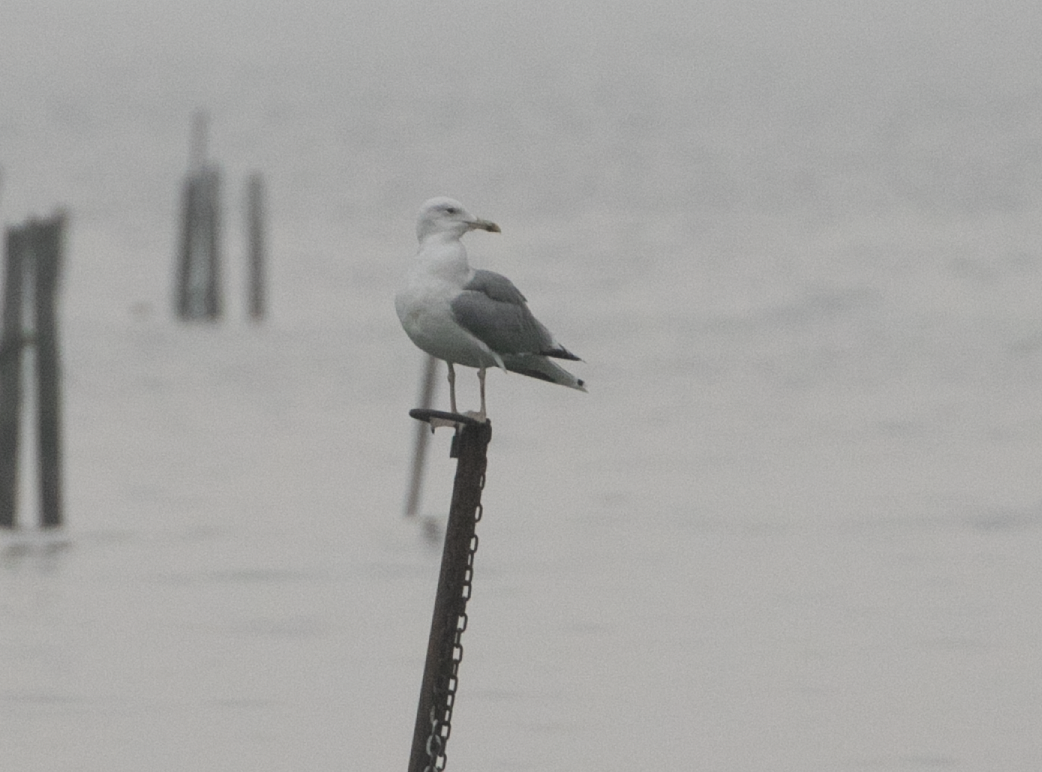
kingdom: Animalia
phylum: Chordata
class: Aves
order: Charadriiformes
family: Laridae
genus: Larus
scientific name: Larus cachinnans
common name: Caspian gull
